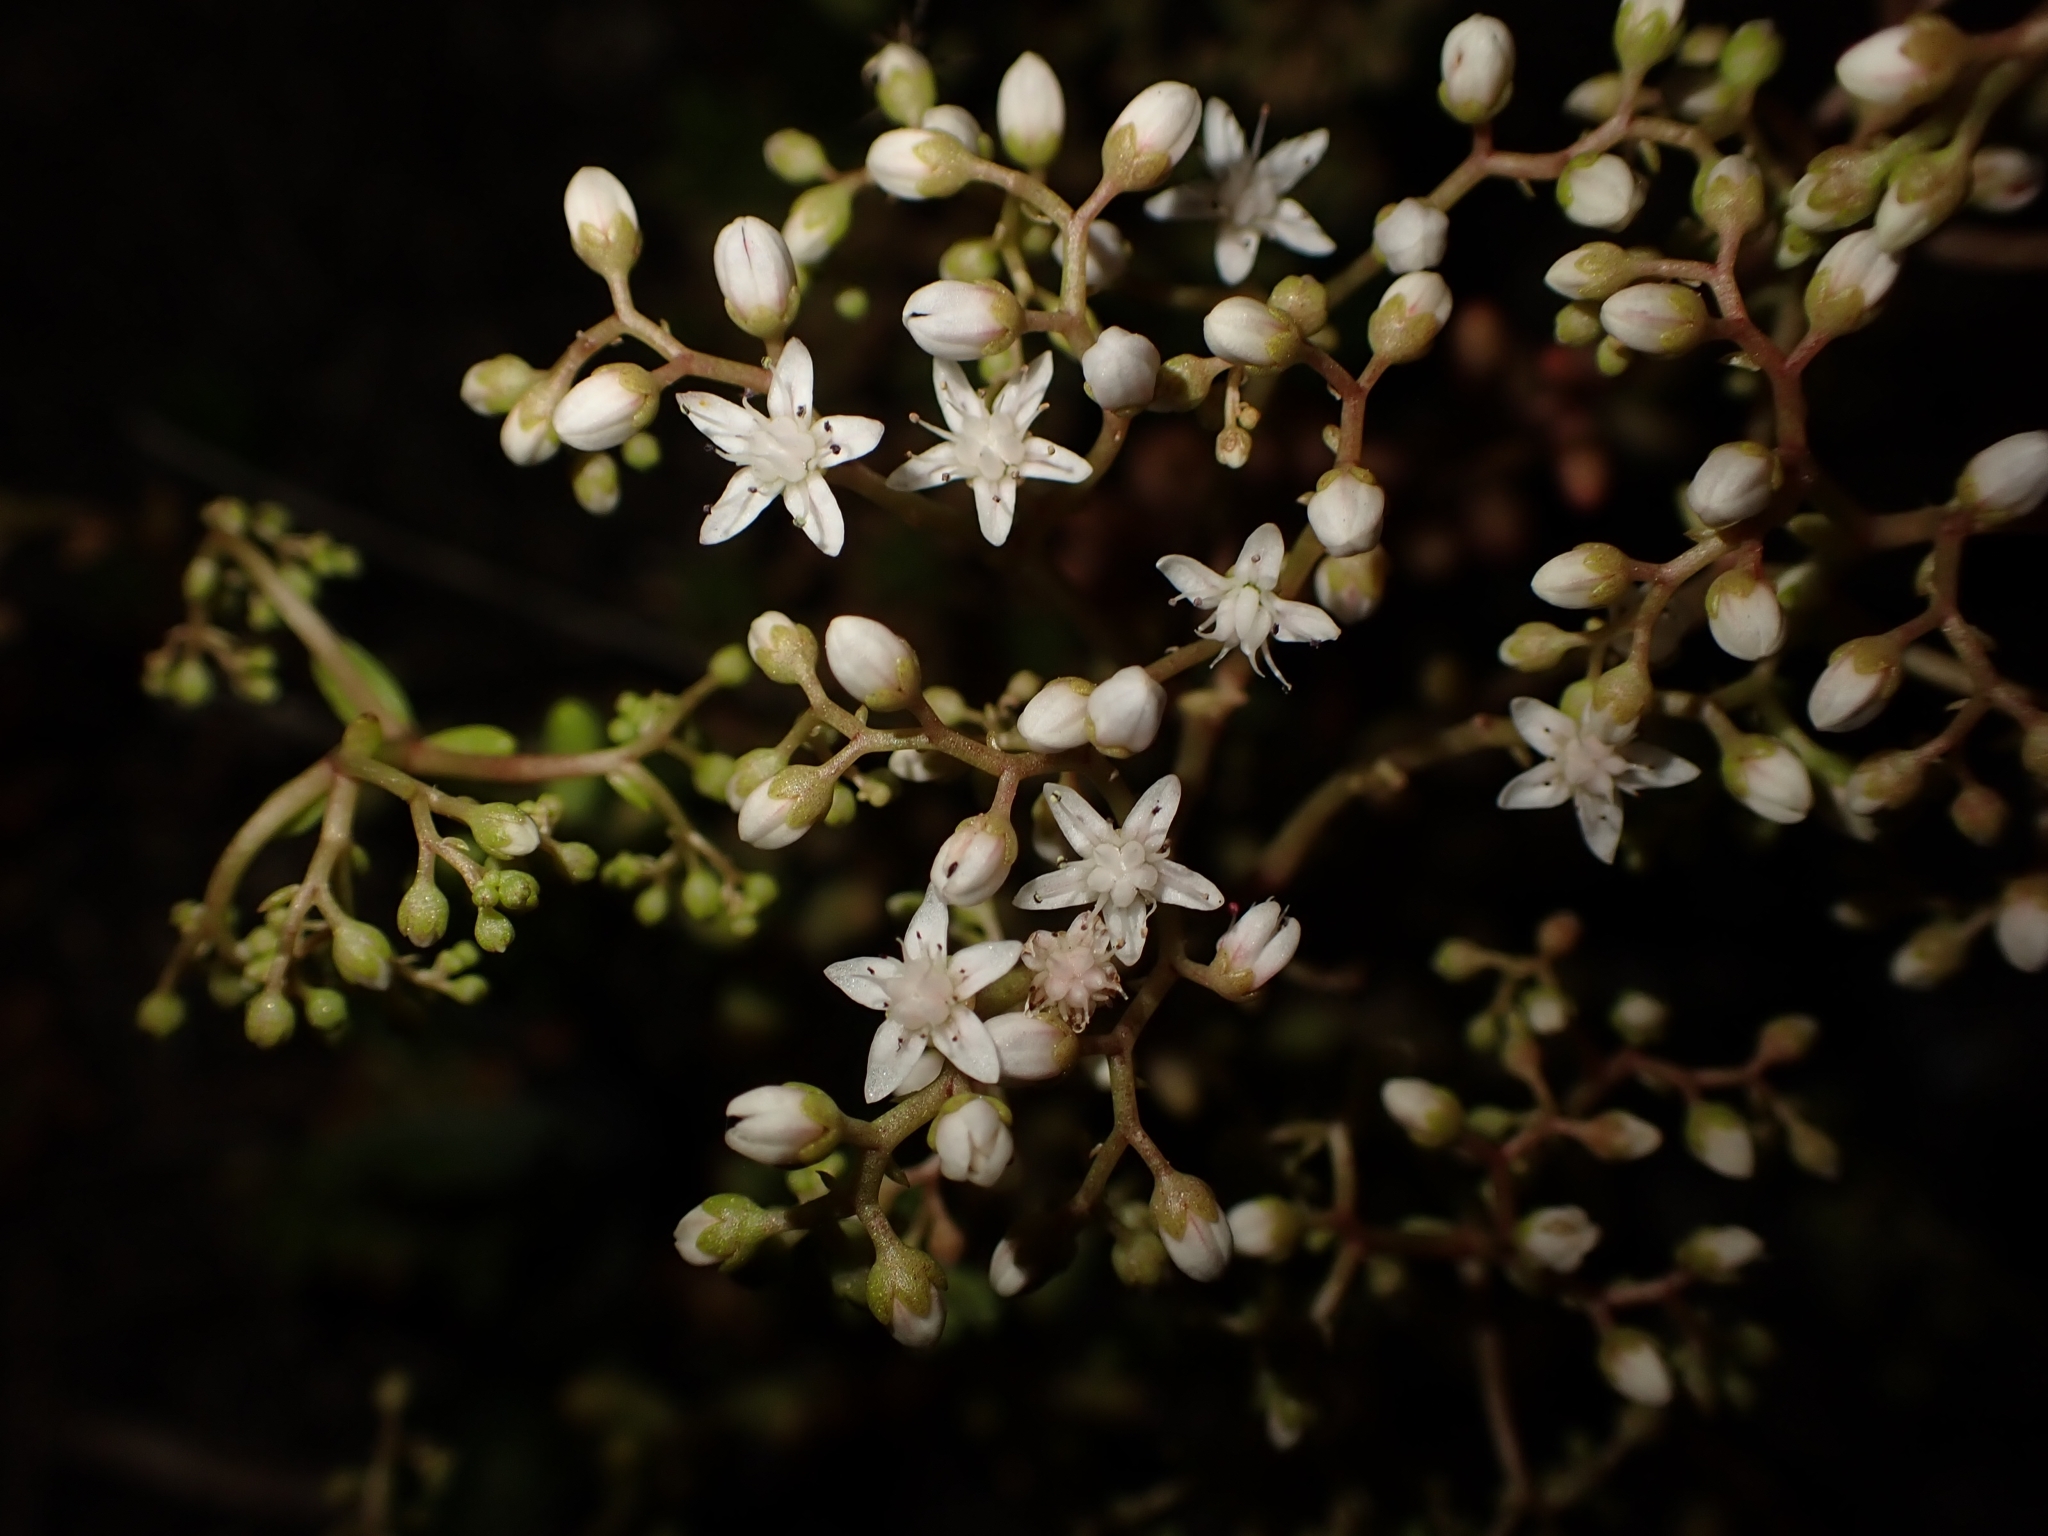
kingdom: Plantae
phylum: Tracheophyta
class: Magnoliopsida
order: Saxifragales
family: Crassulaceae
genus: Sedum
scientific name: Sedum album
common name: White stonecrop
